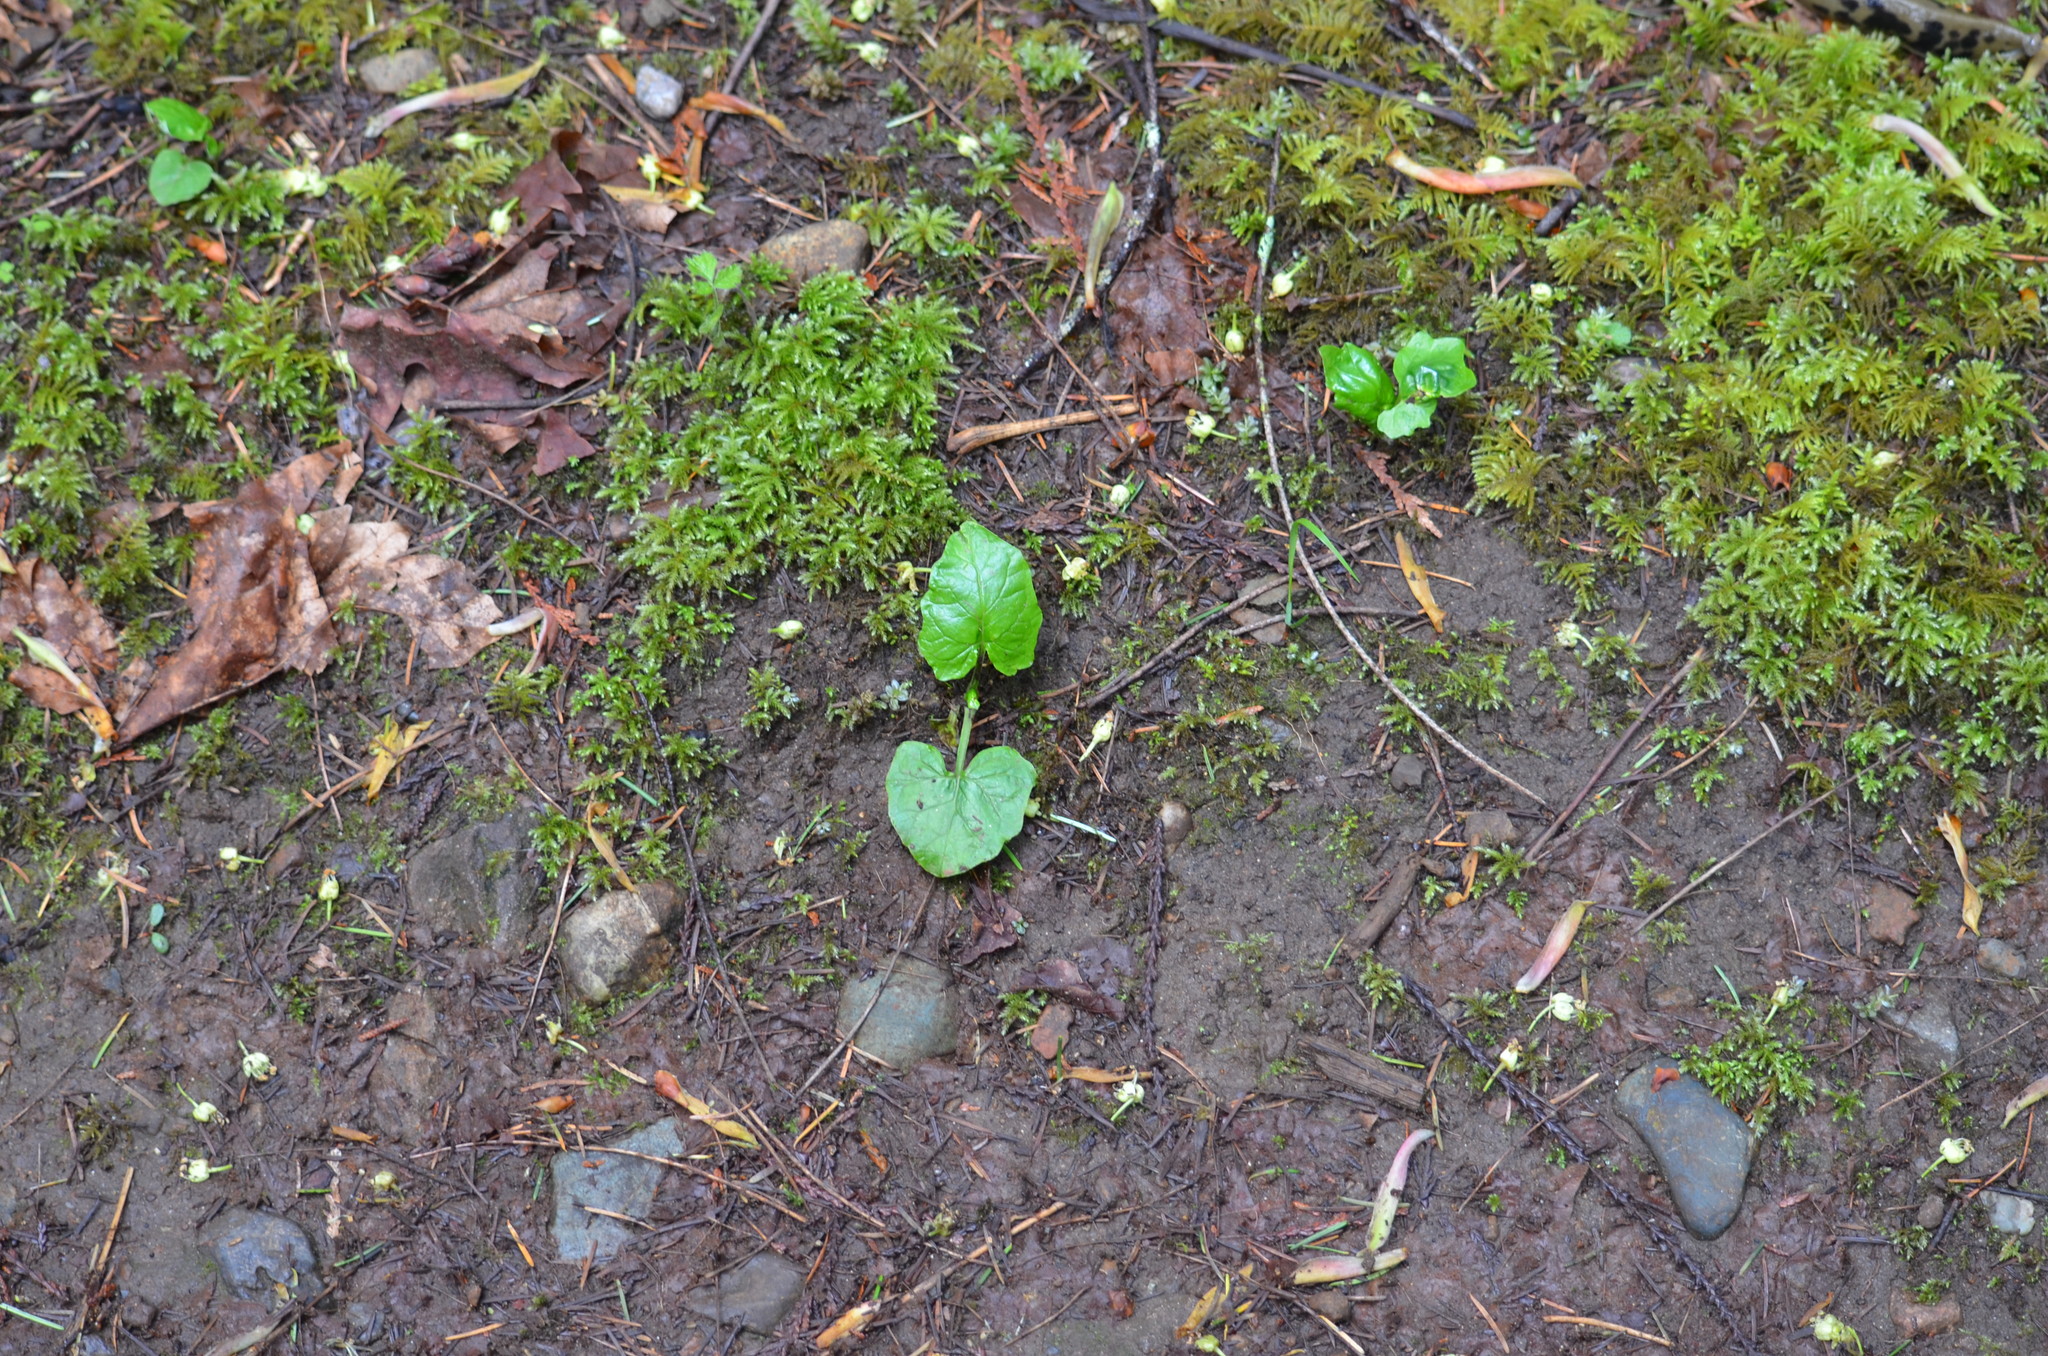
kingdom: Plantae
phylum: Tracheophyta
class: Magnoliopsida
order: Asterales
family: Asteraceae
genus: Adenocaulon
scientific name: Adenocaulon bicolor
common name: Trailplant
